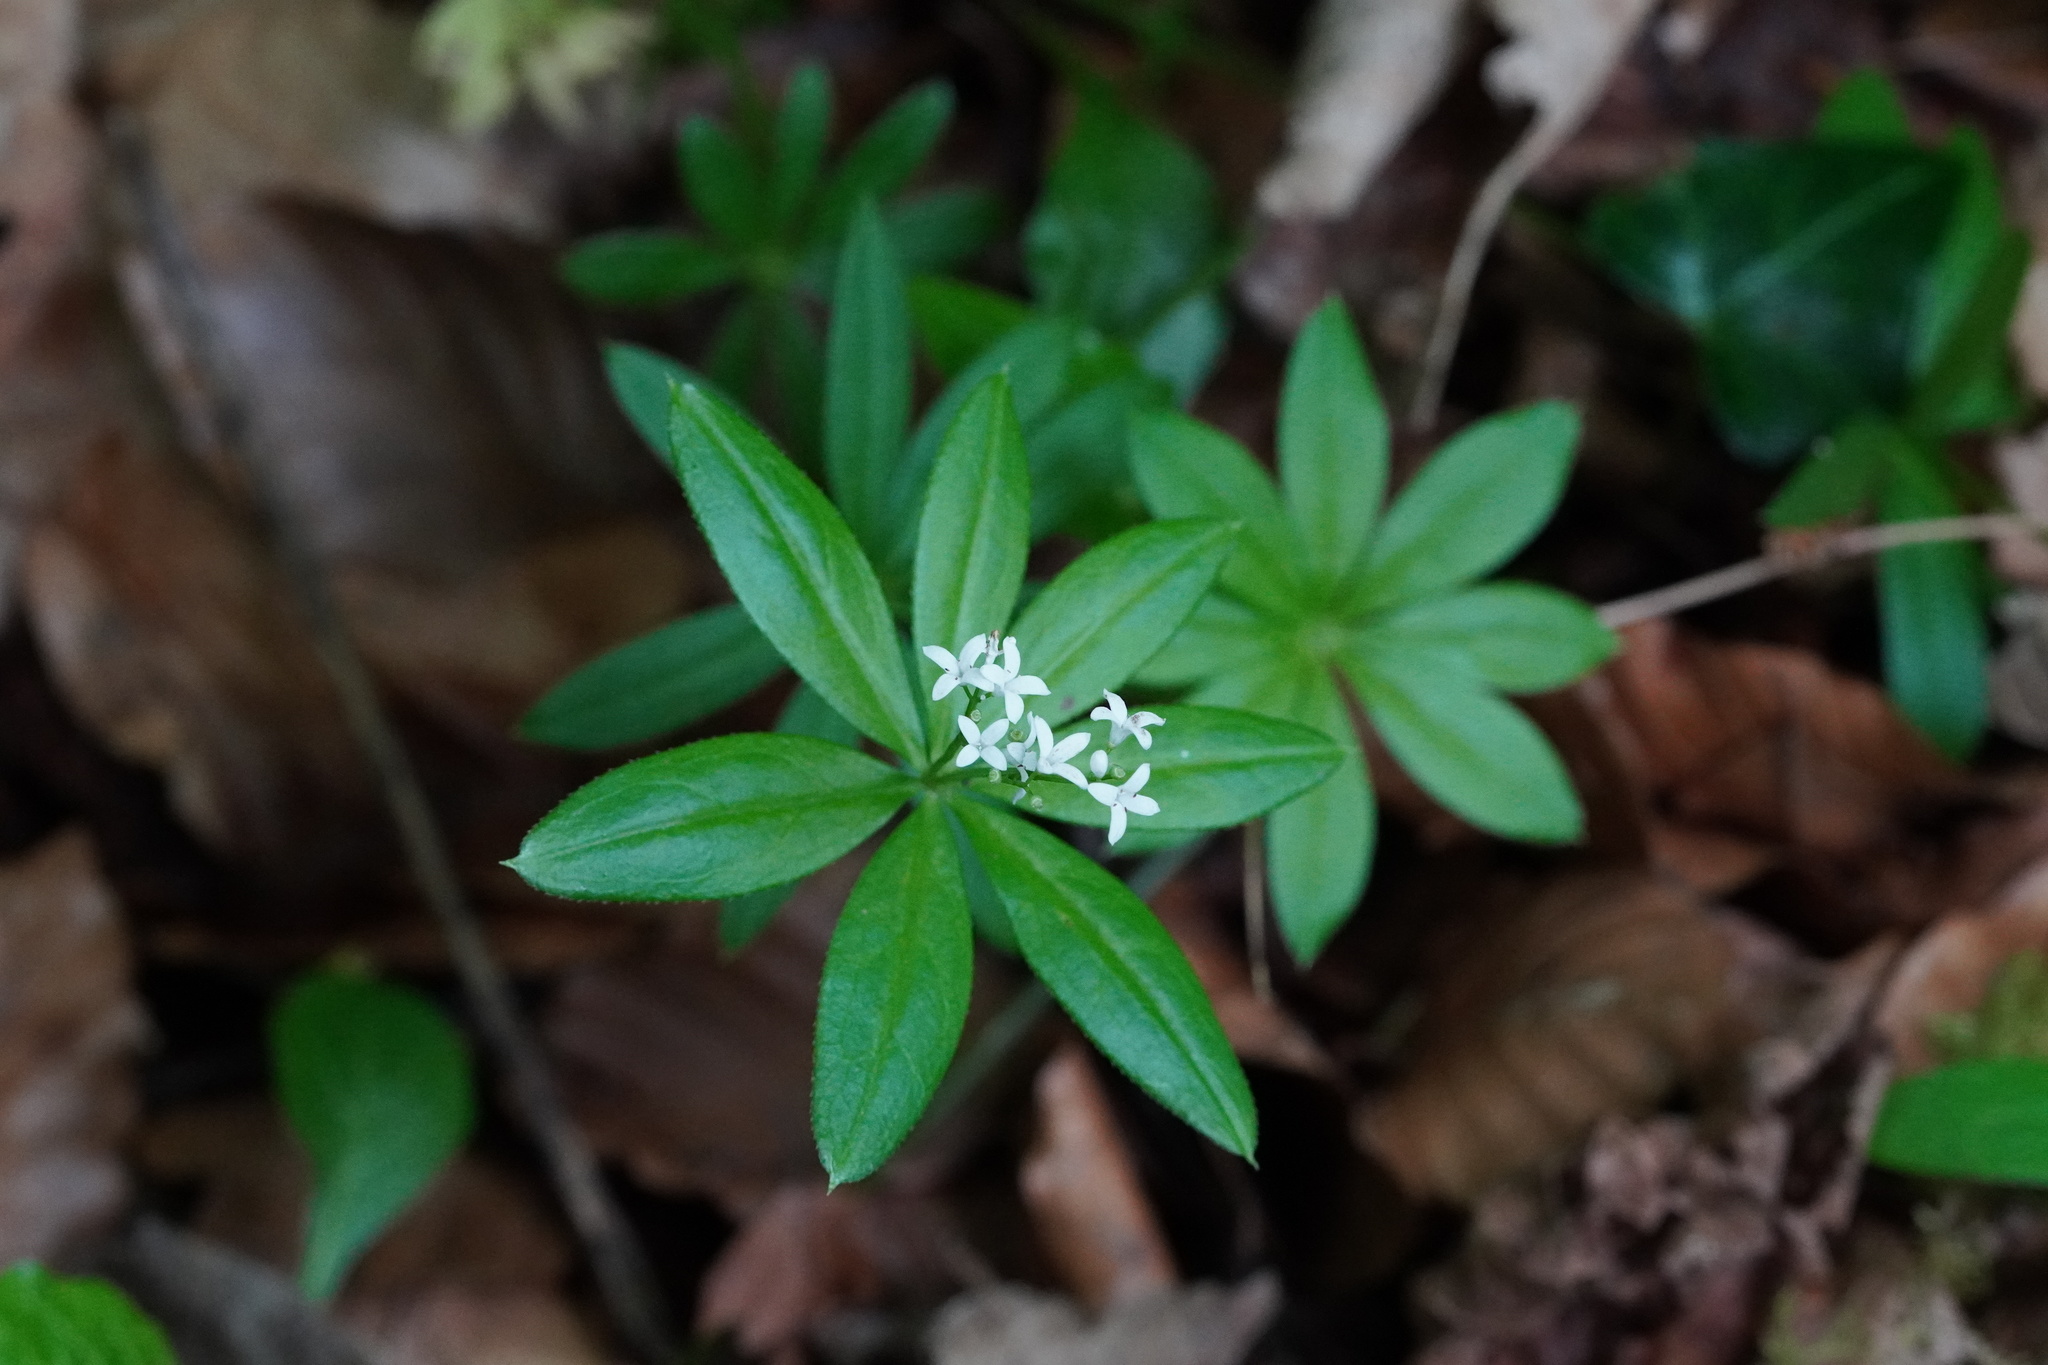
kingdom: Plantae
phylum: Tracheophyta
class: Magnoliopsida
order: Gentianales
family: Rubiaceae
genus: Galium
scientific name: Galium odoratum
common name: Sweet woodruff
